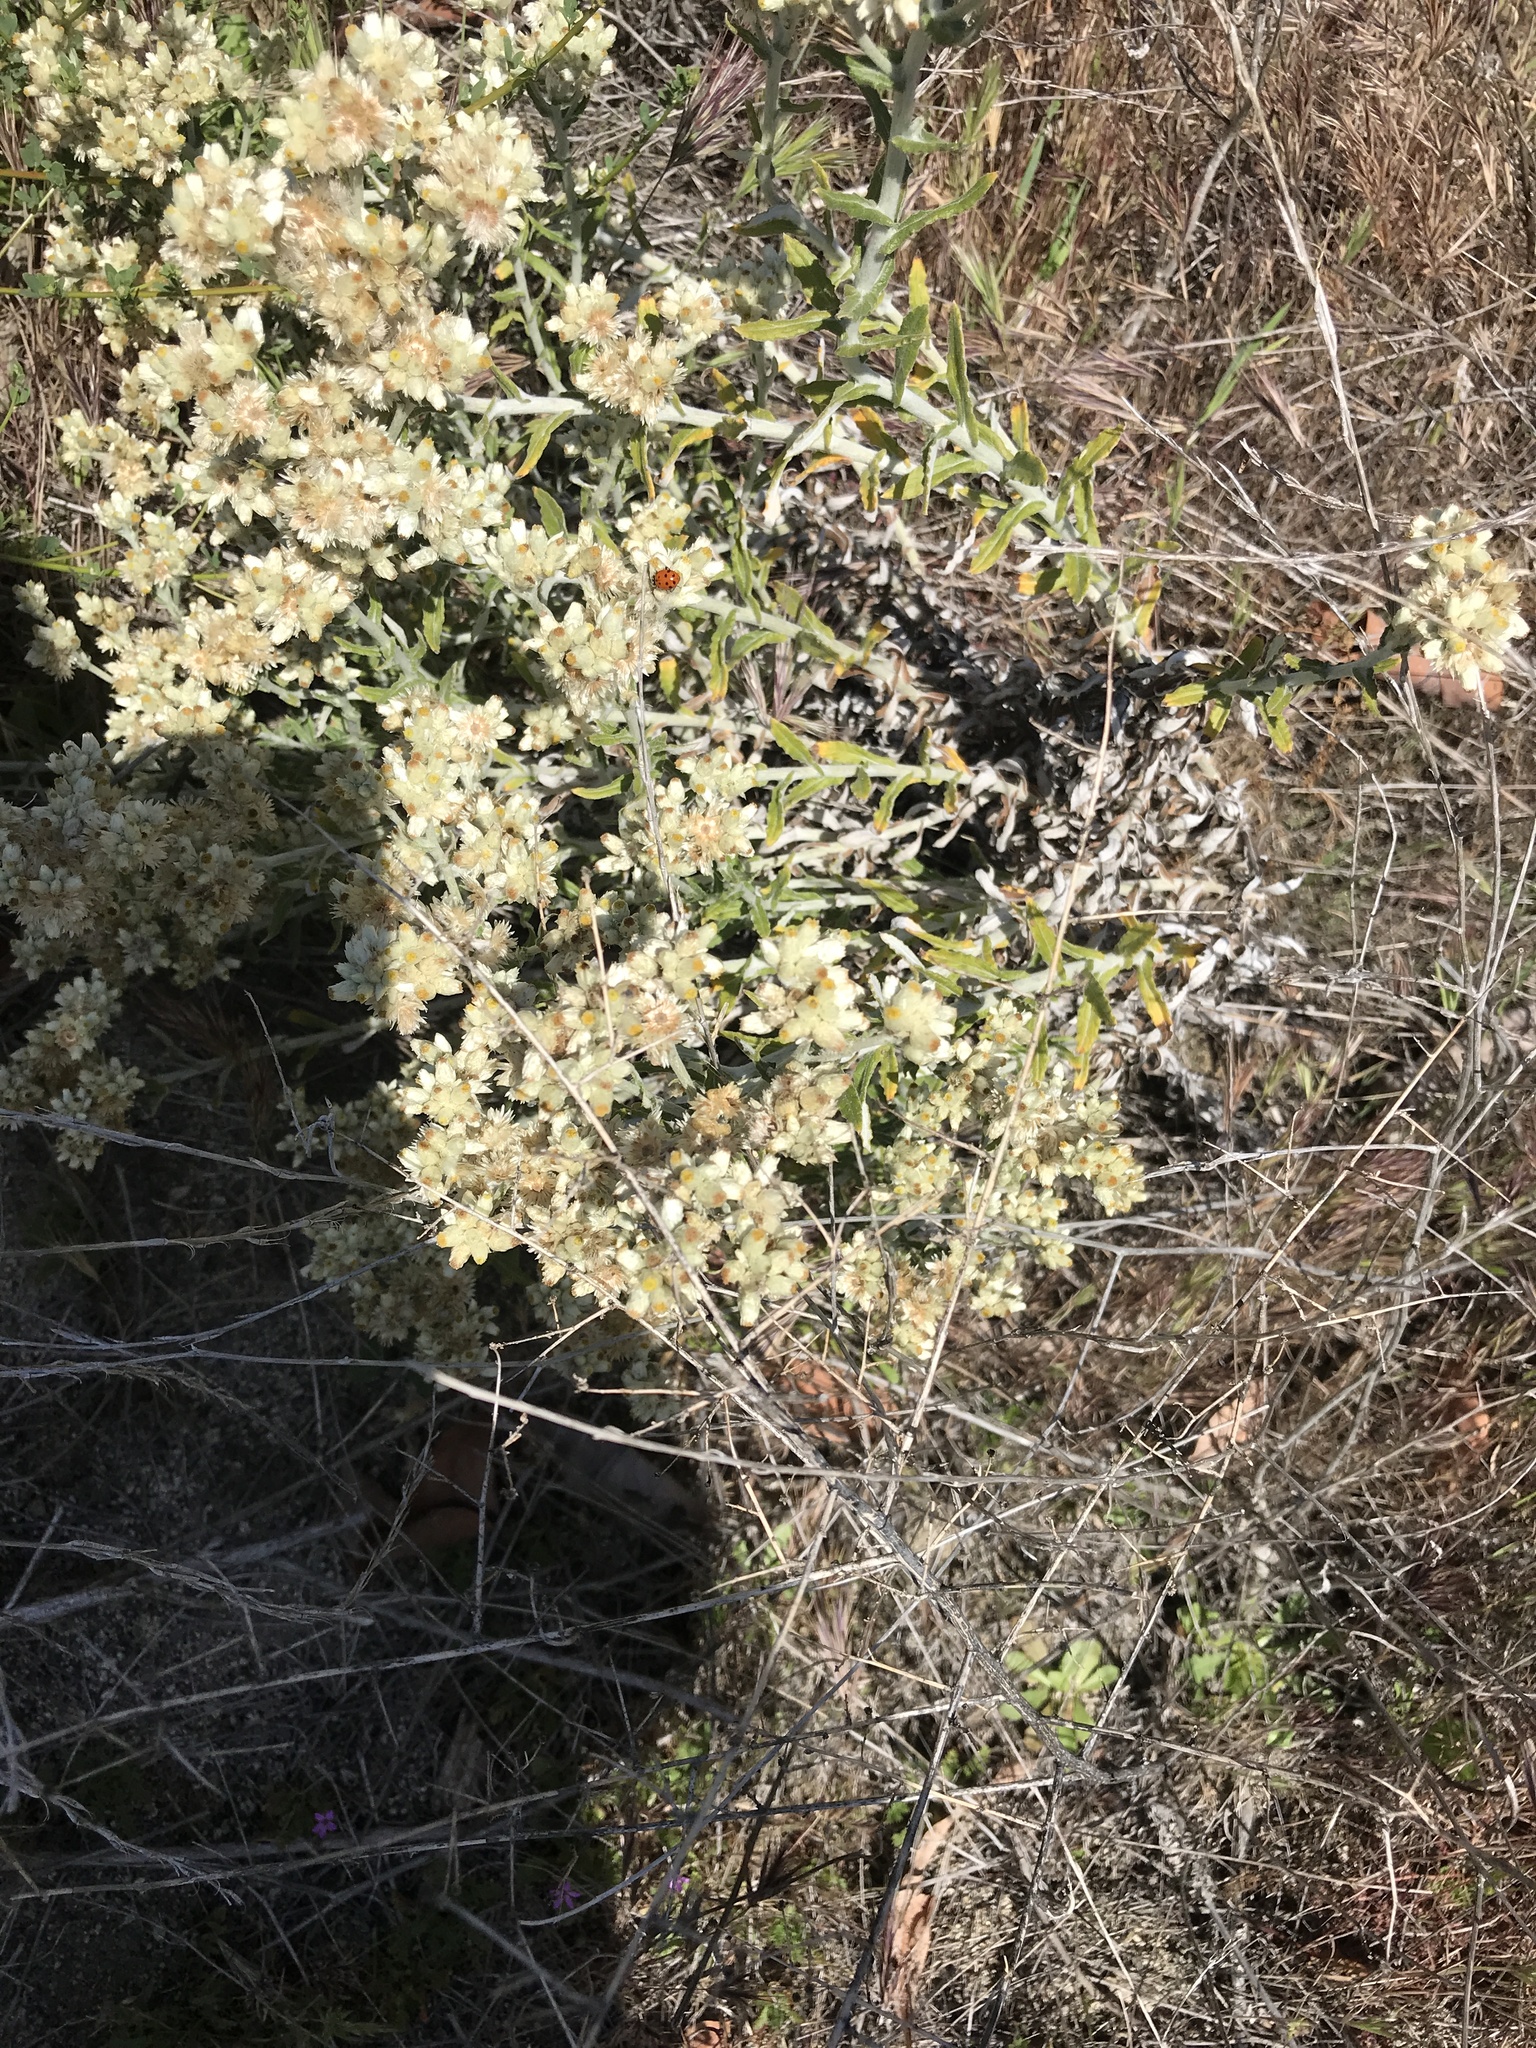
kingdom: Plantae
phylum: Tracheophyta
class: Magnoliopsida
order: Asterales
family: Asteraceae
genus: Pseudognaphalium
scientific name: Pseudognaphalium biolettii
